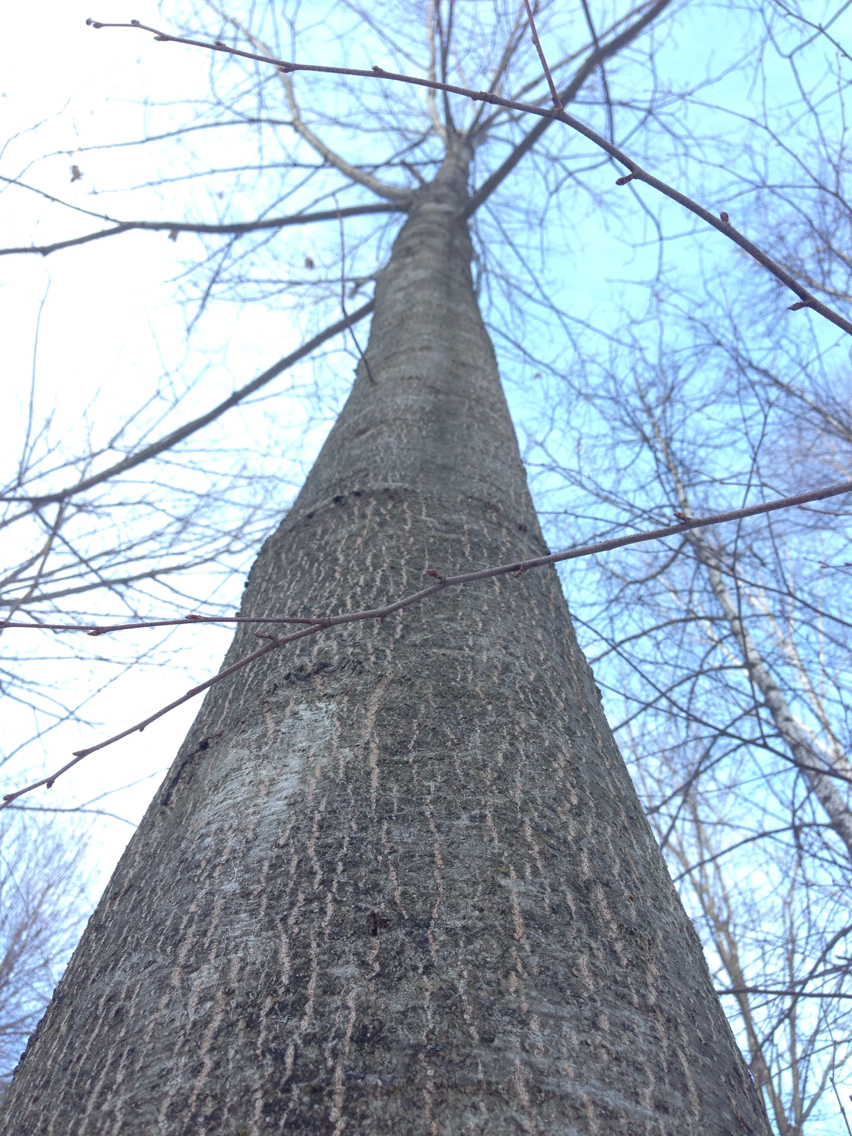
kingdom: Plantae
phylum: Tracheophyta
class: Magnoliopsida
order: Fagales
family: Fagaceae
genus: Quercus
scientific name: Quercus rubra
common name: Red oak
